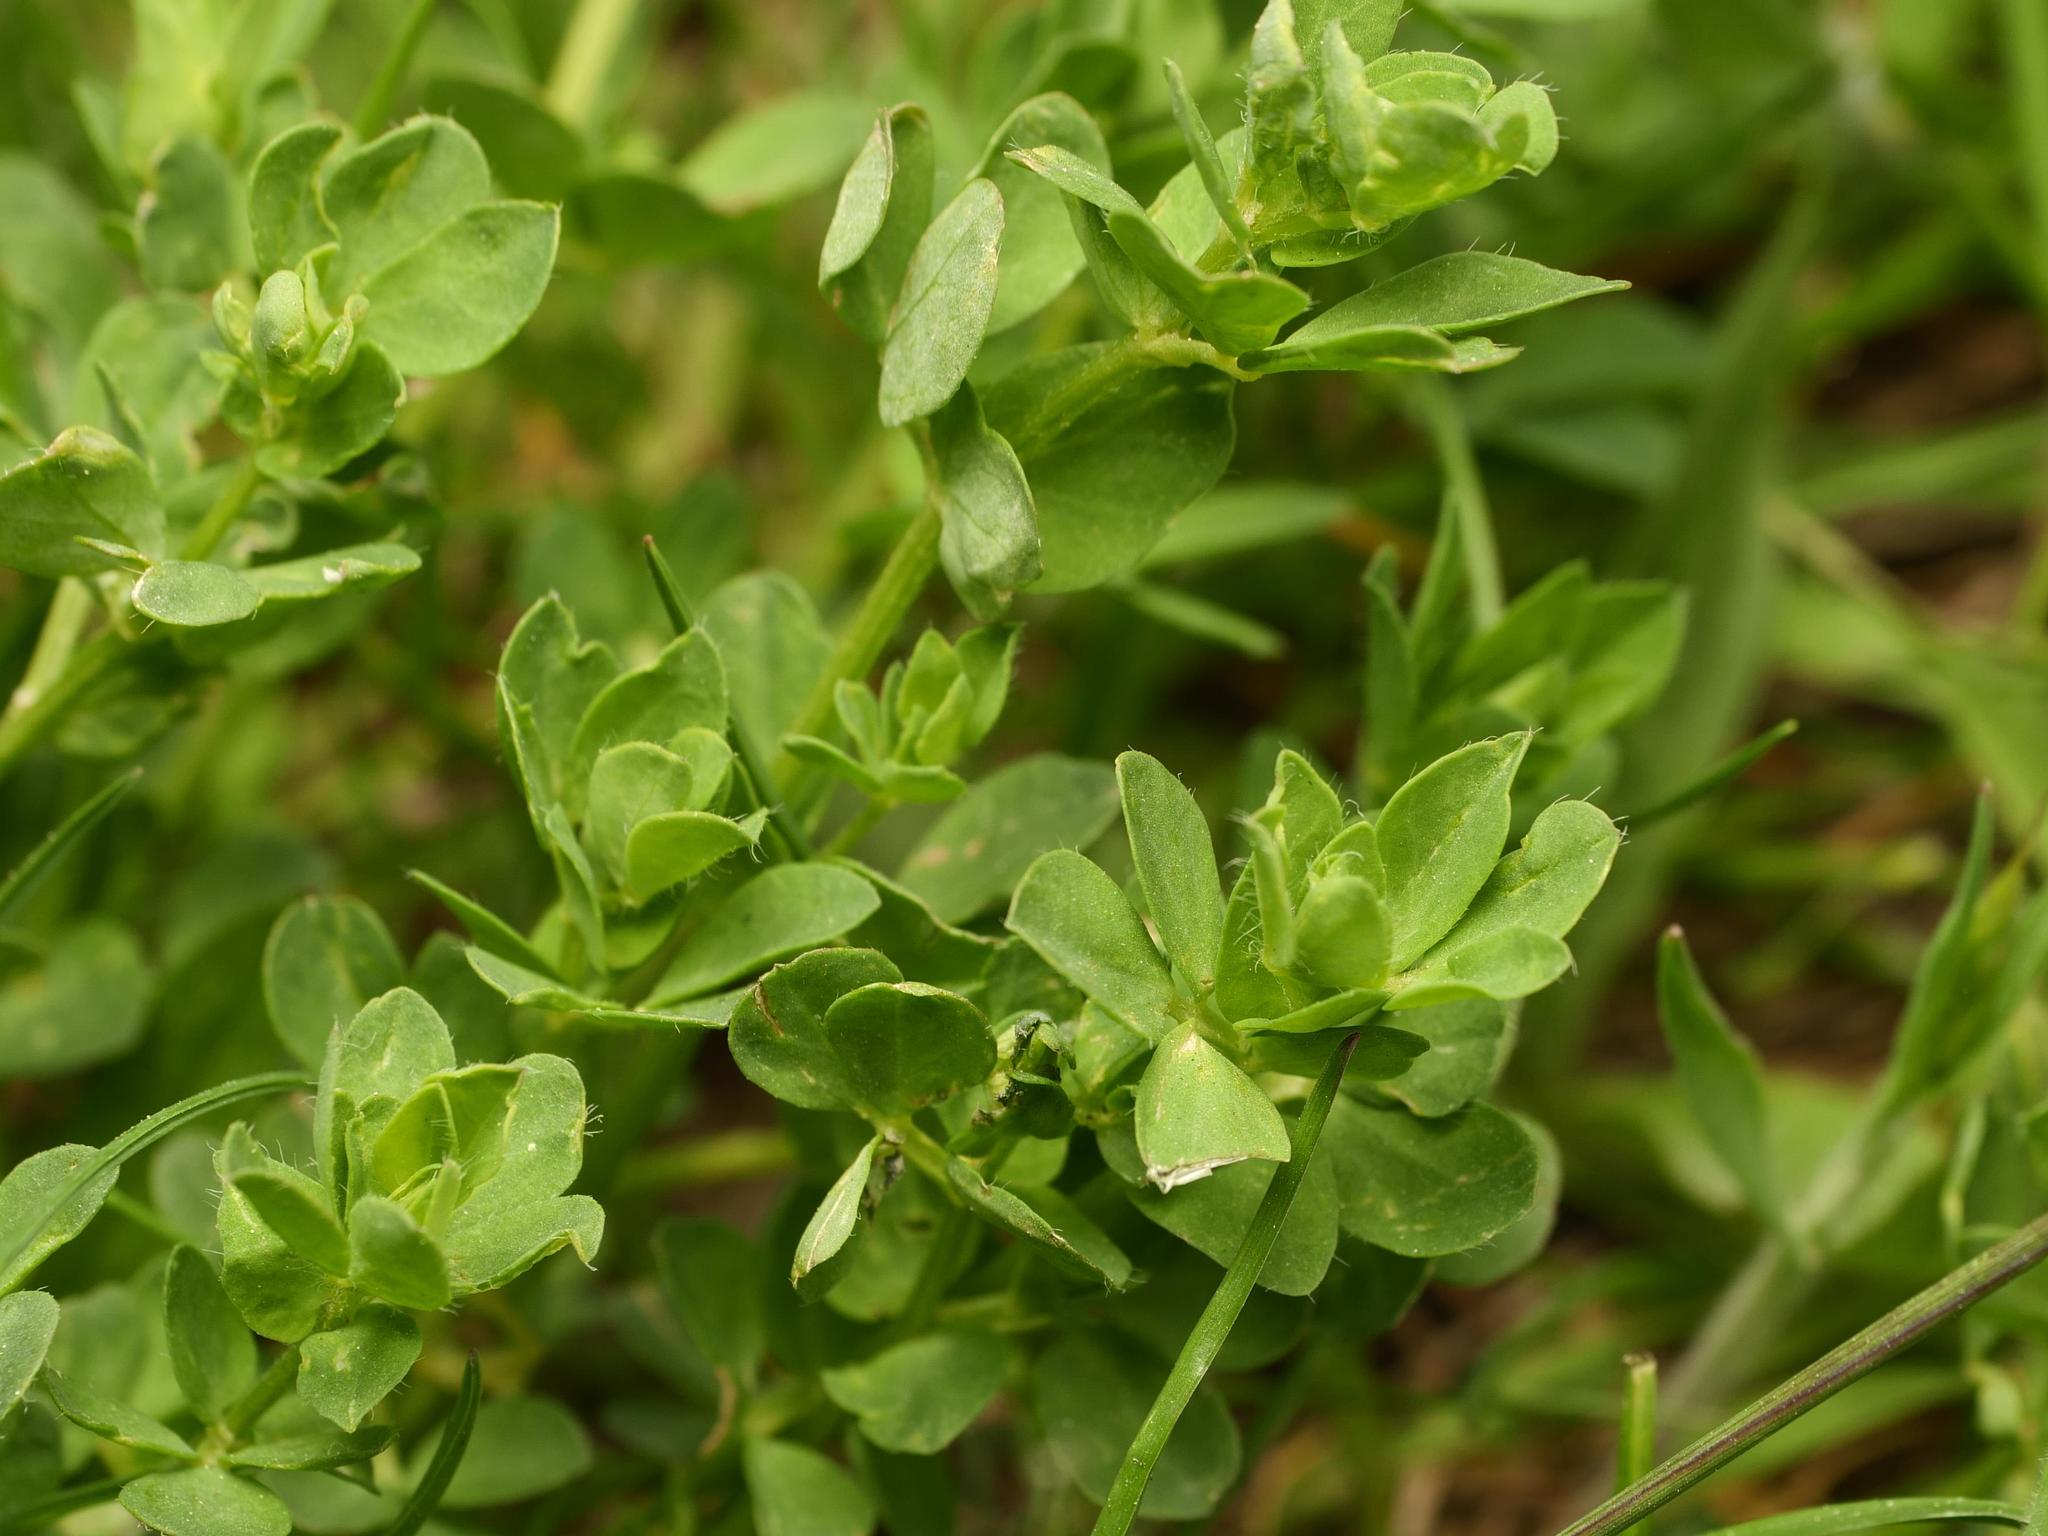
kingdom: Plantae
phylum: Tracheophyta
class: Magnoliopsida
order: Fabales
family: Fabaceae
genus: Lotus
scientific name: Lotus corniculatus
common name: Common bird's-foot-trefoil
